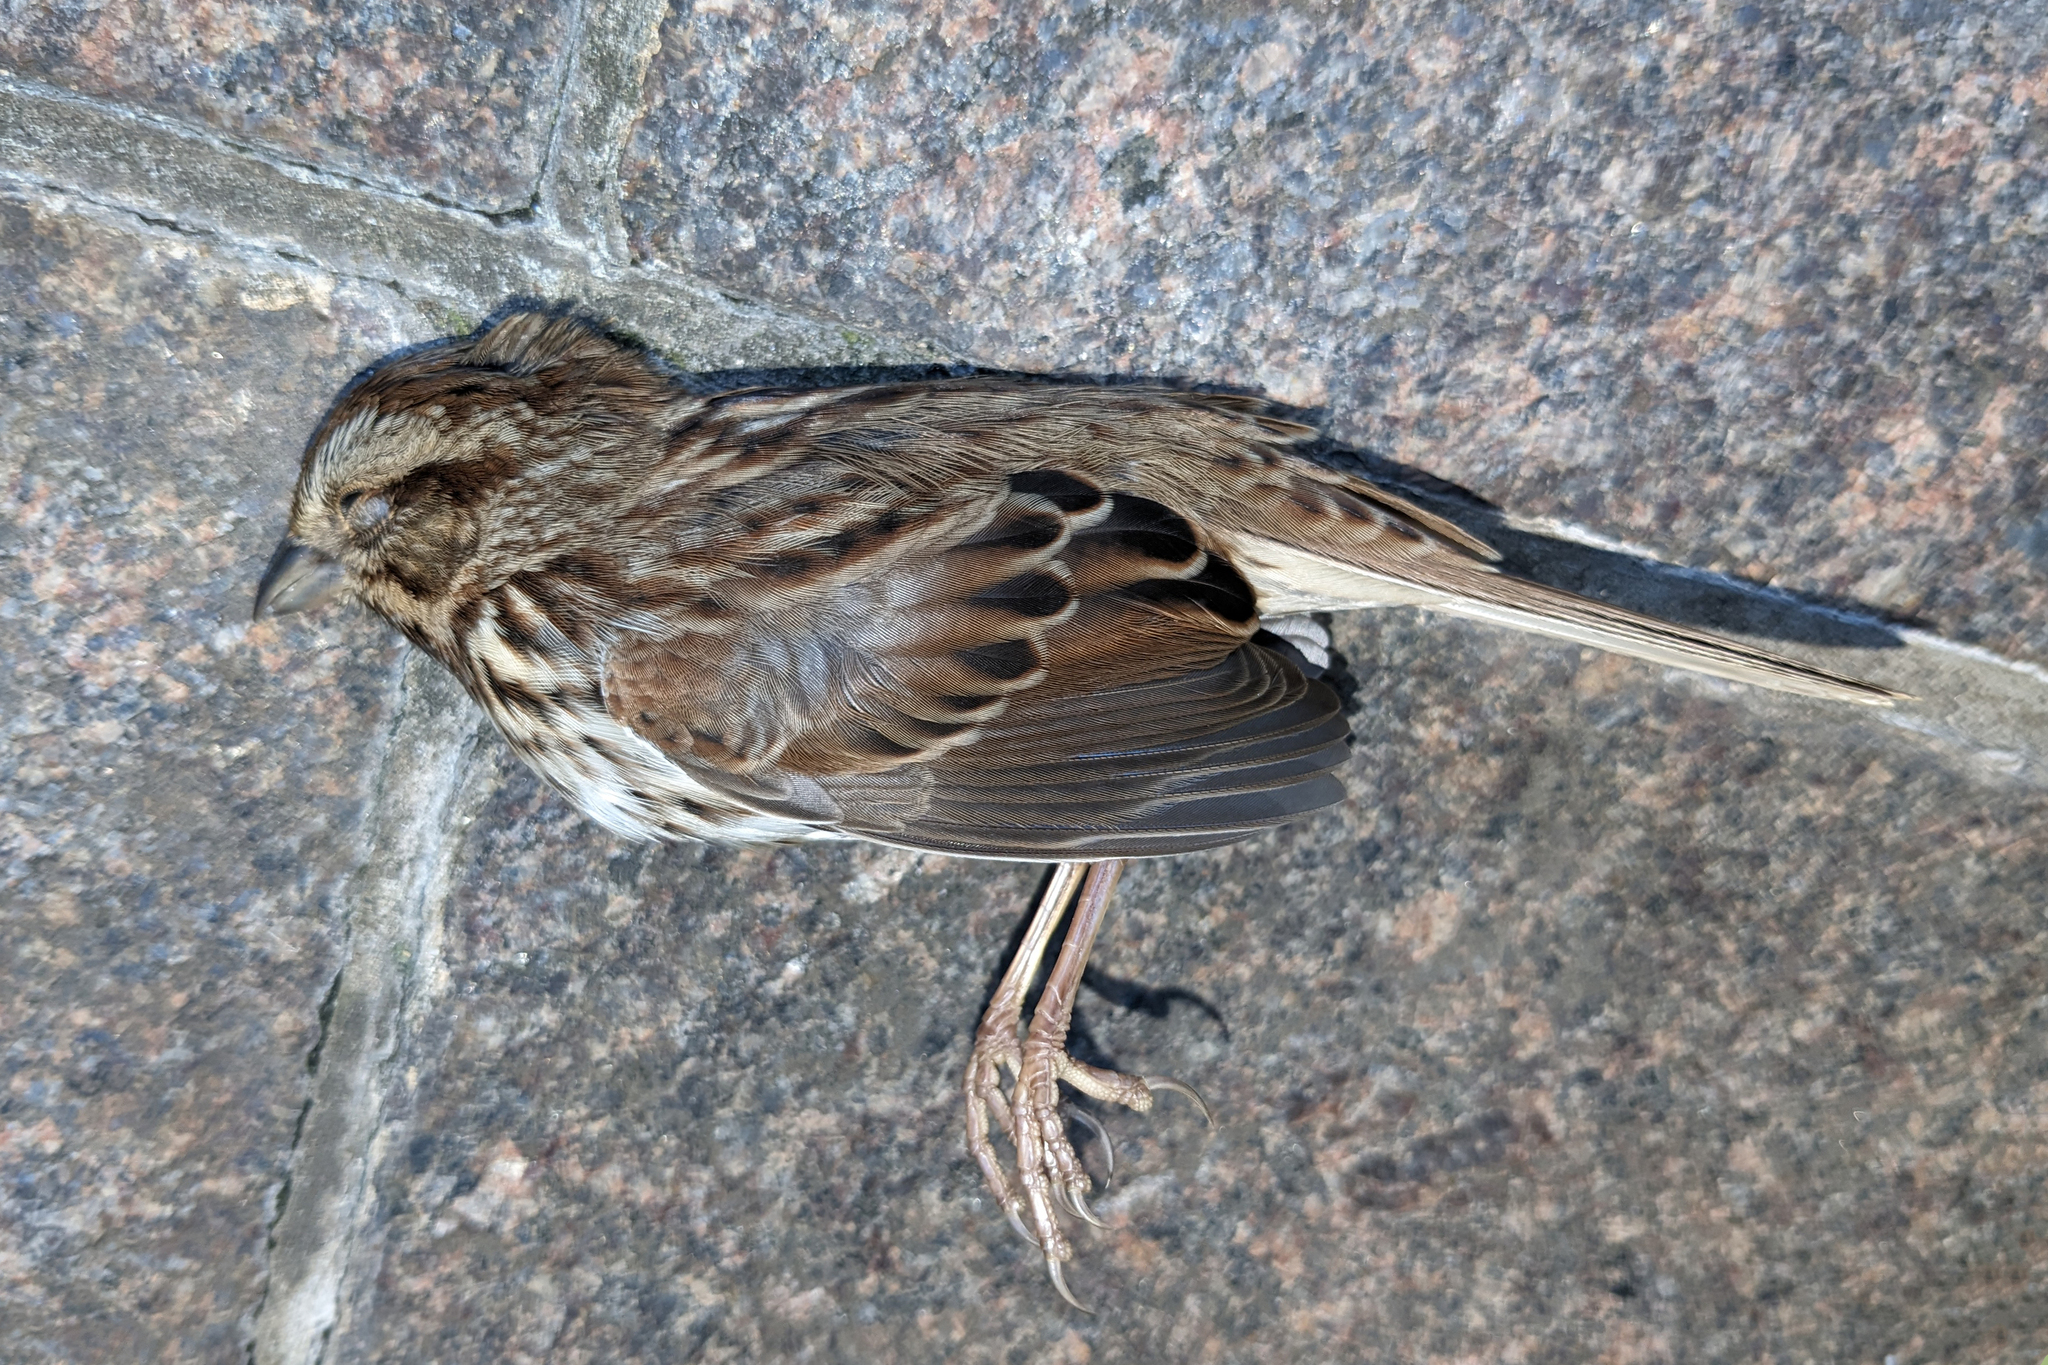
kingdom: Animalia
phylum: Chordata
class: Aves
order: Passeriformes
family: Passerellidae
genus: Melospiza
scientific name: Melospiza melodia
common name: Song sparrow
